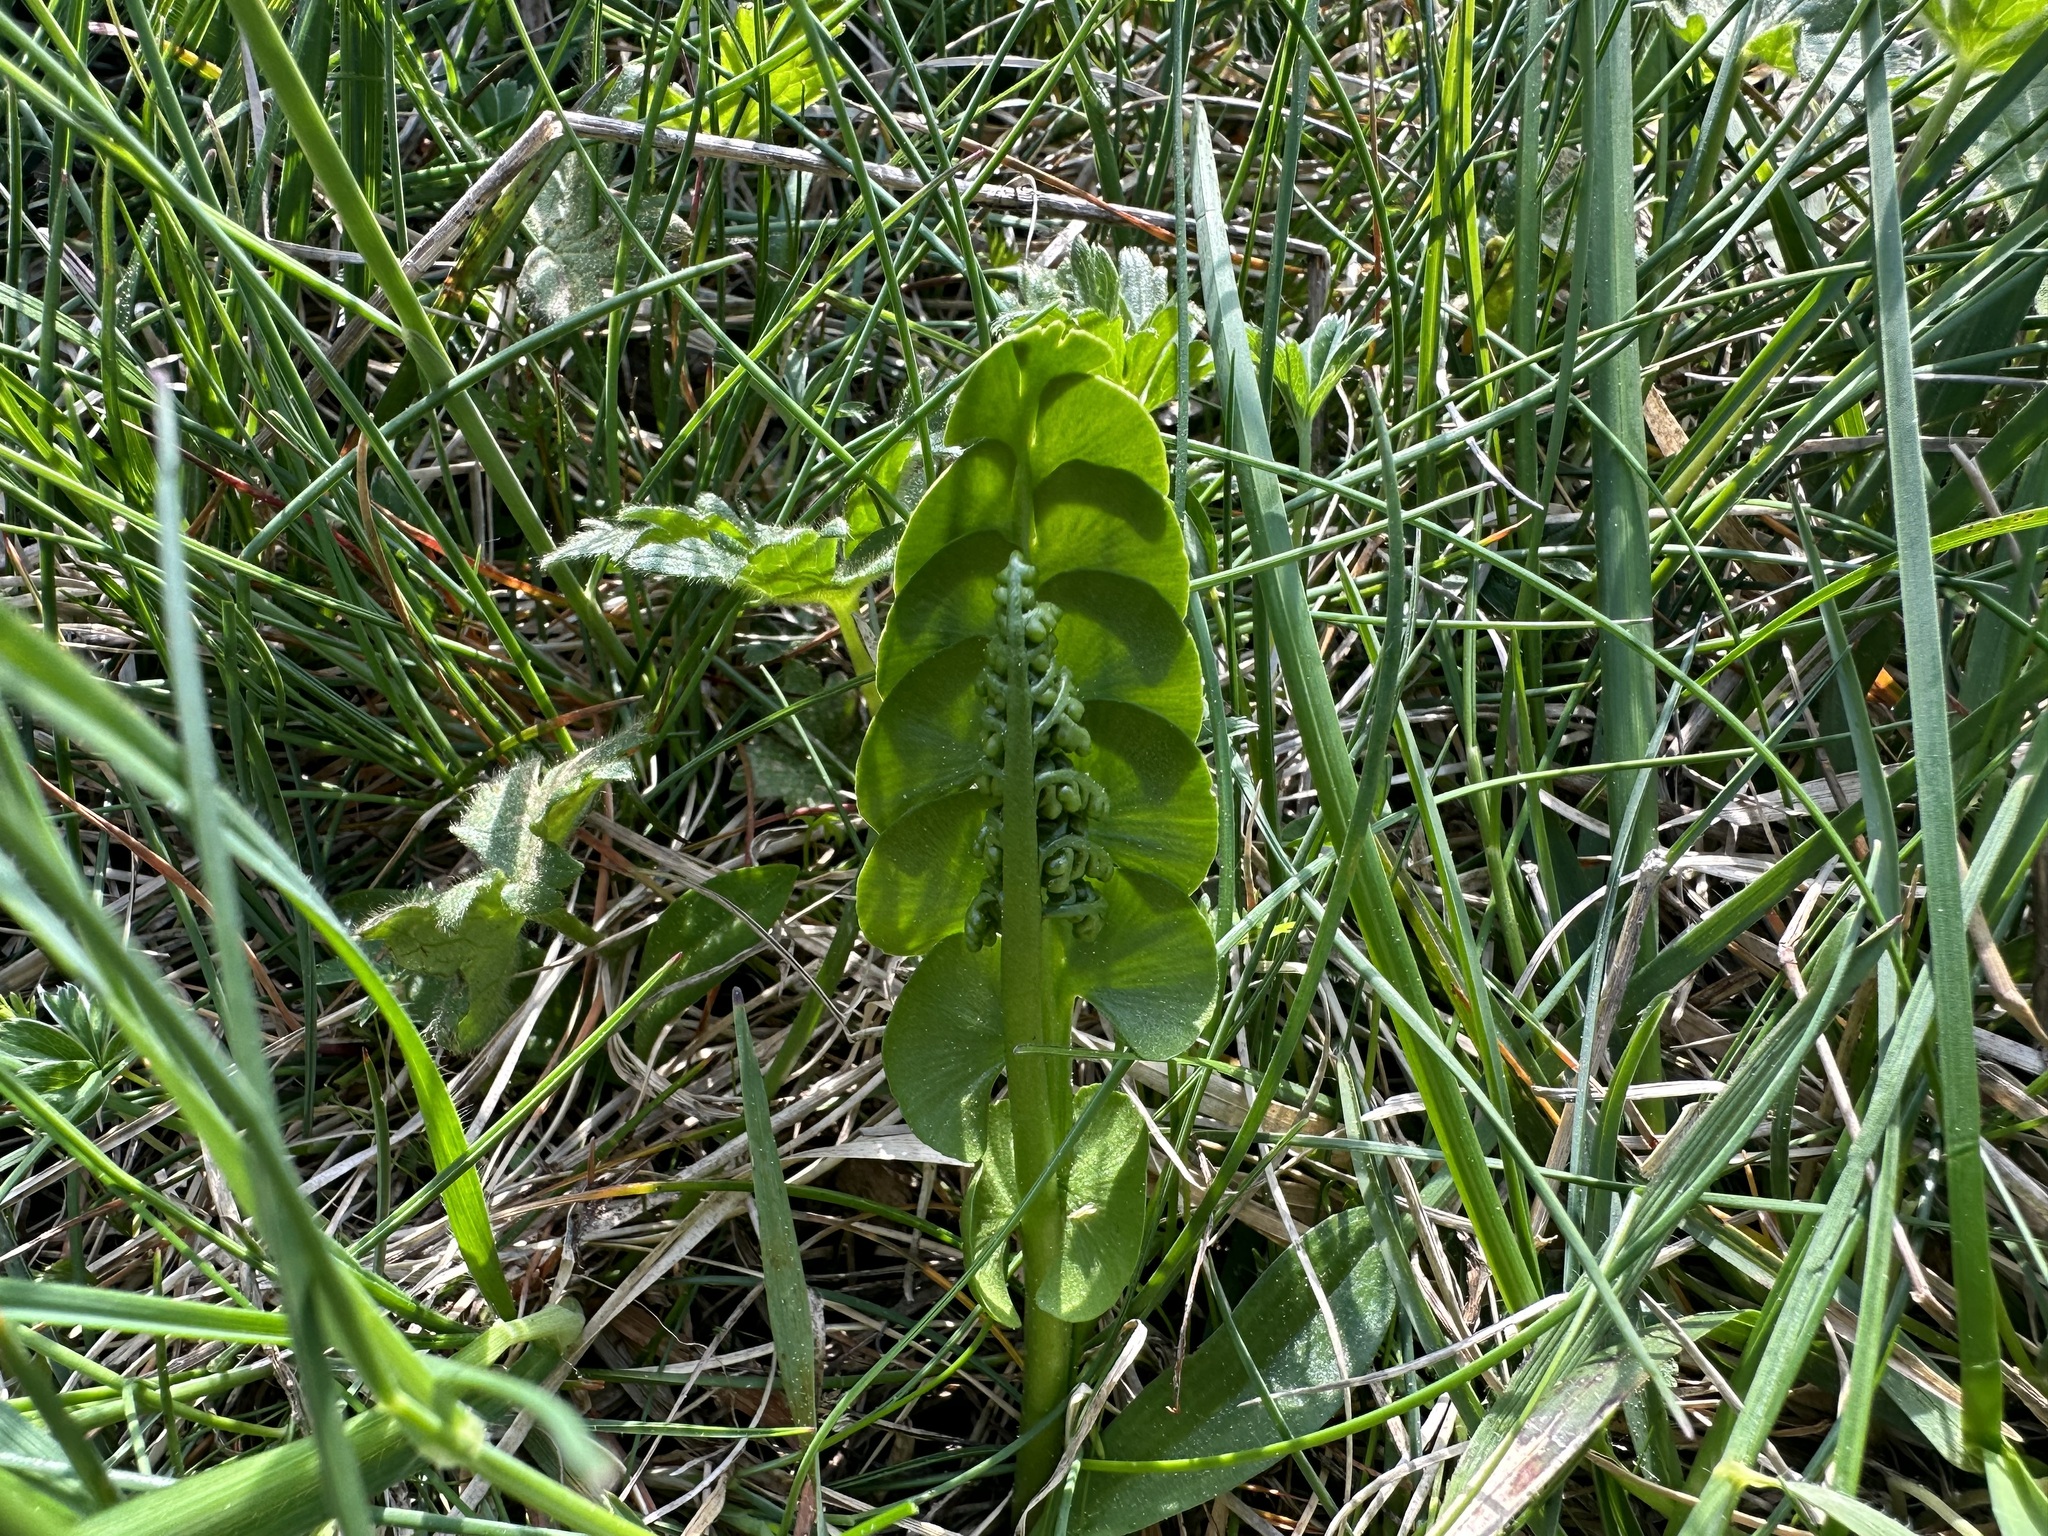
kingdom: Plantae
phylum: Tracheophyta
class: Polypodiopsida
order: Ophioglossales
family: Ophioglossaceae
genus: Botrychium
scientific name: Botrychium lunaria
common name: Moonwort
